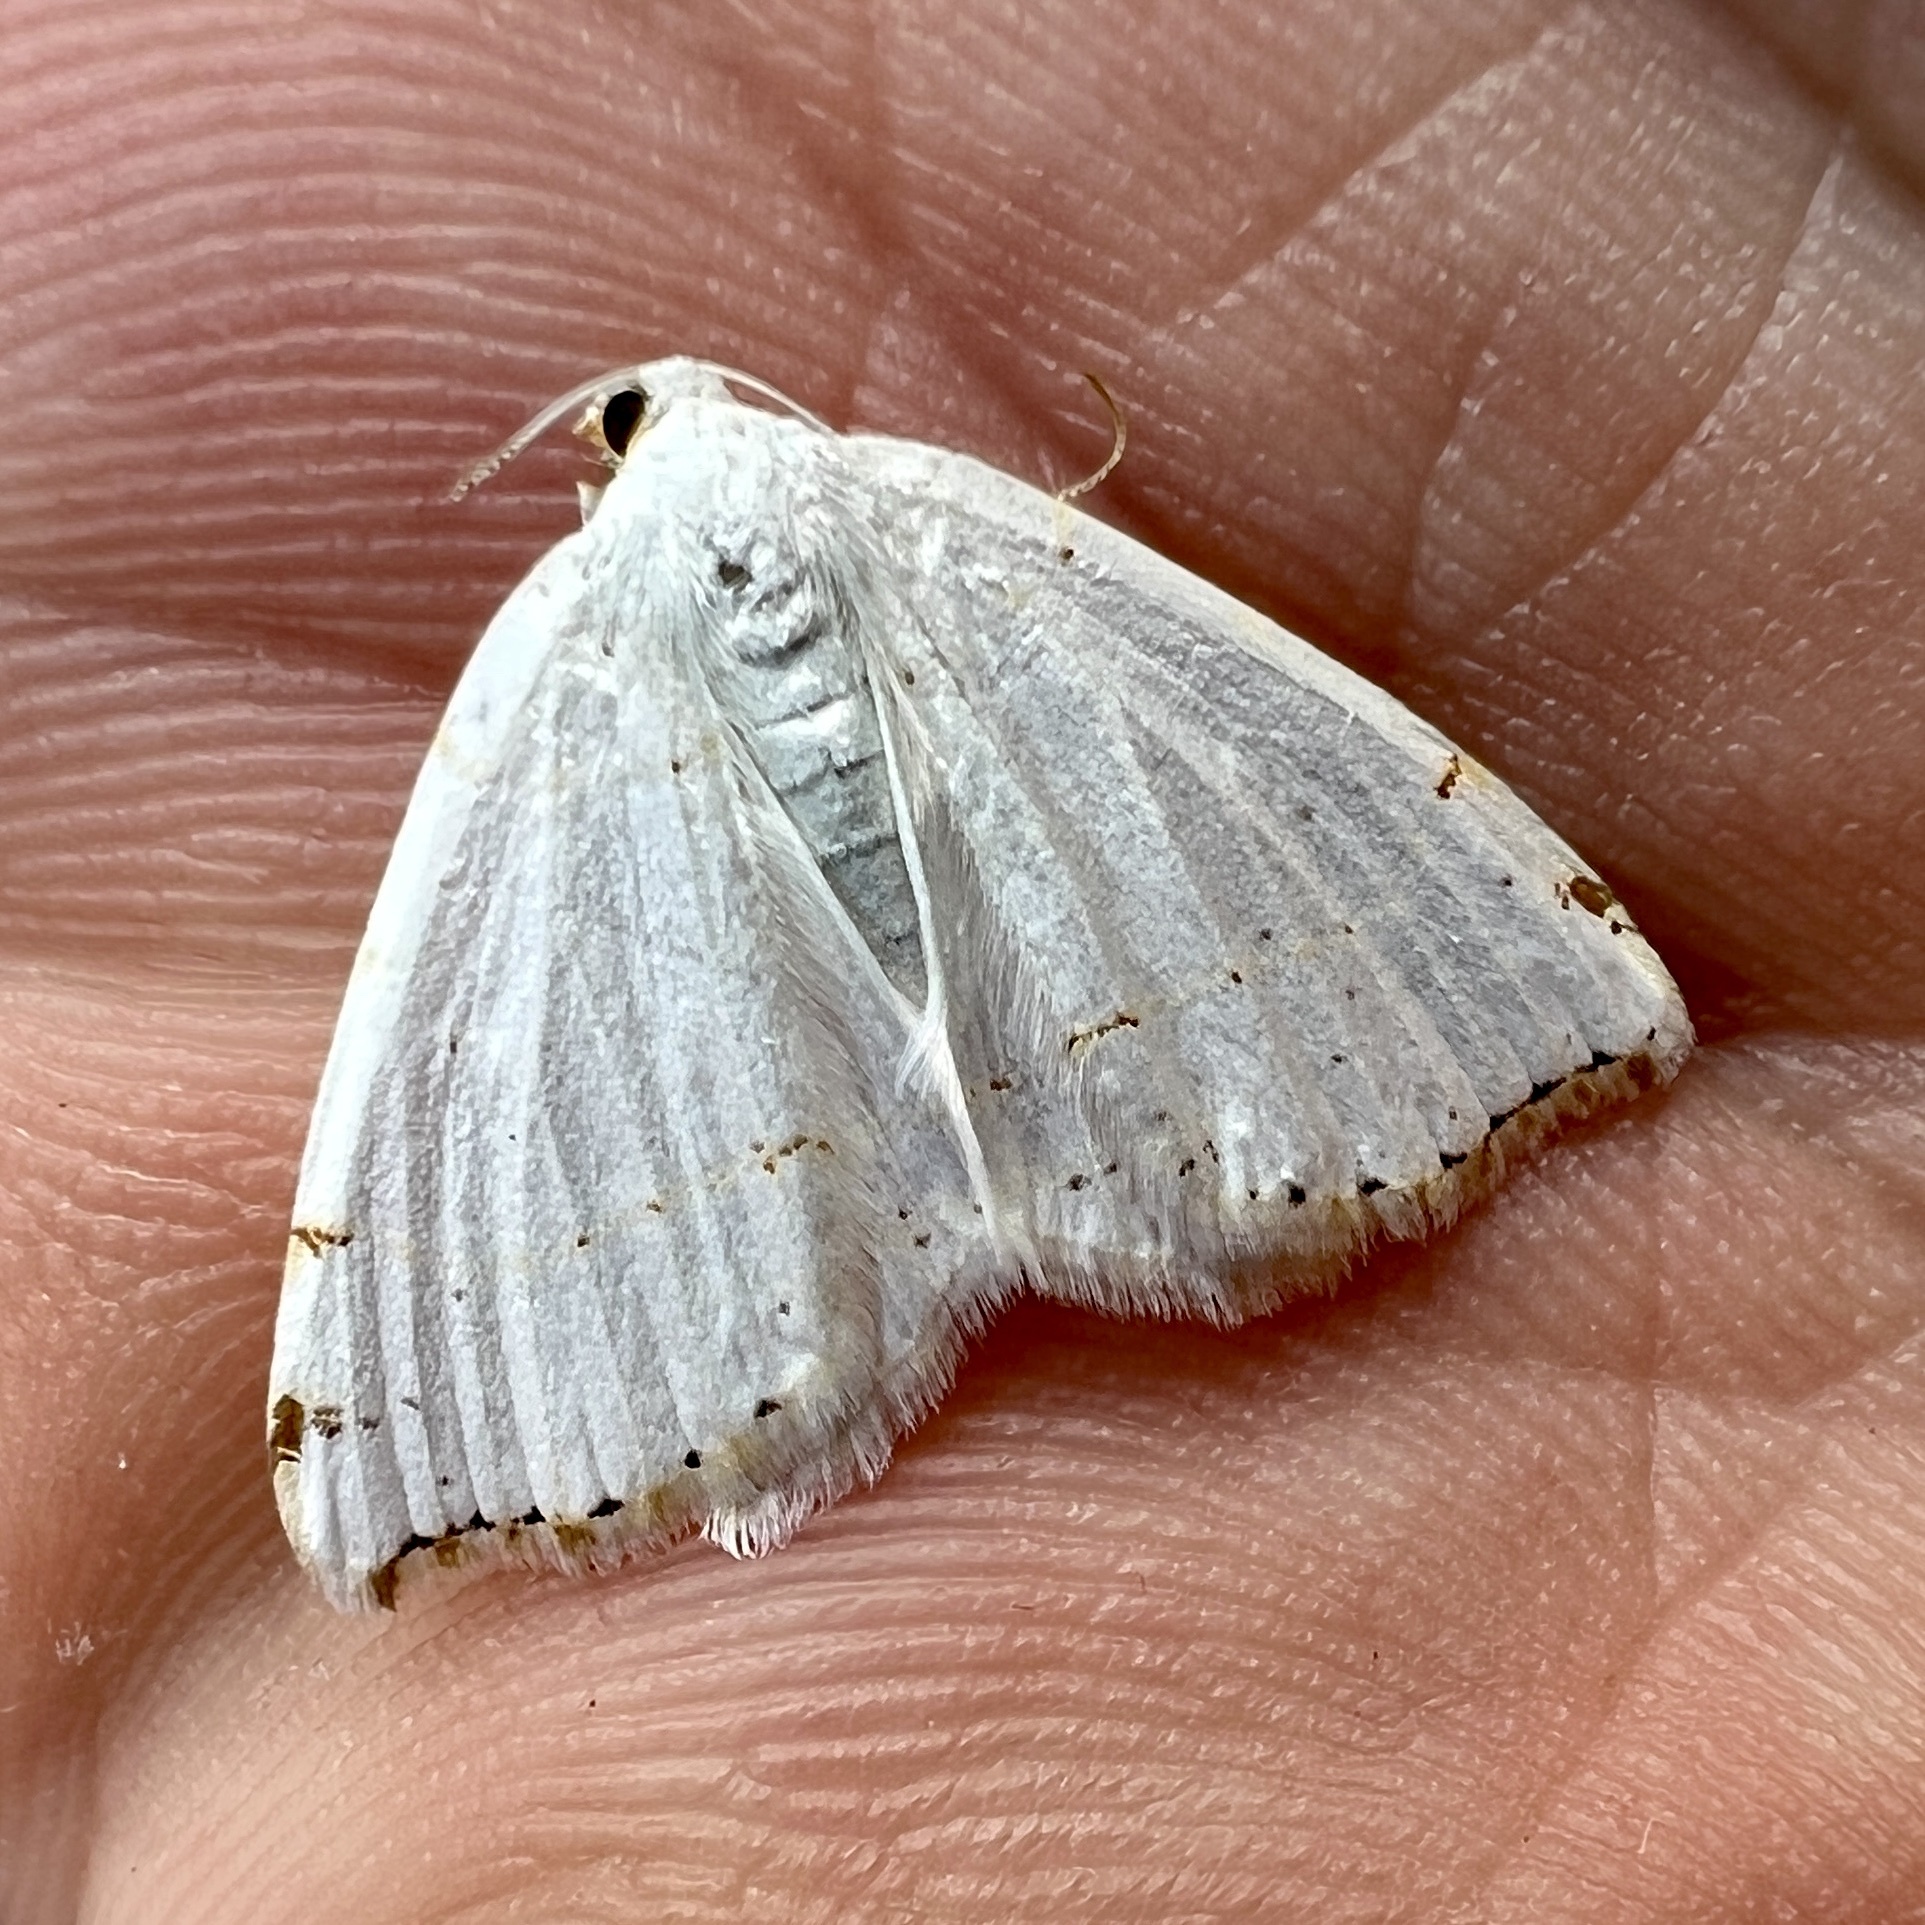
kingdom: Animalia
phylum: Arthropoda
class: Insecta
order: Lepidoptera
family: Geometridae
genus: Macaria
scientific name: Macaria pustularia
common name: Lesser maple spanworm moth
